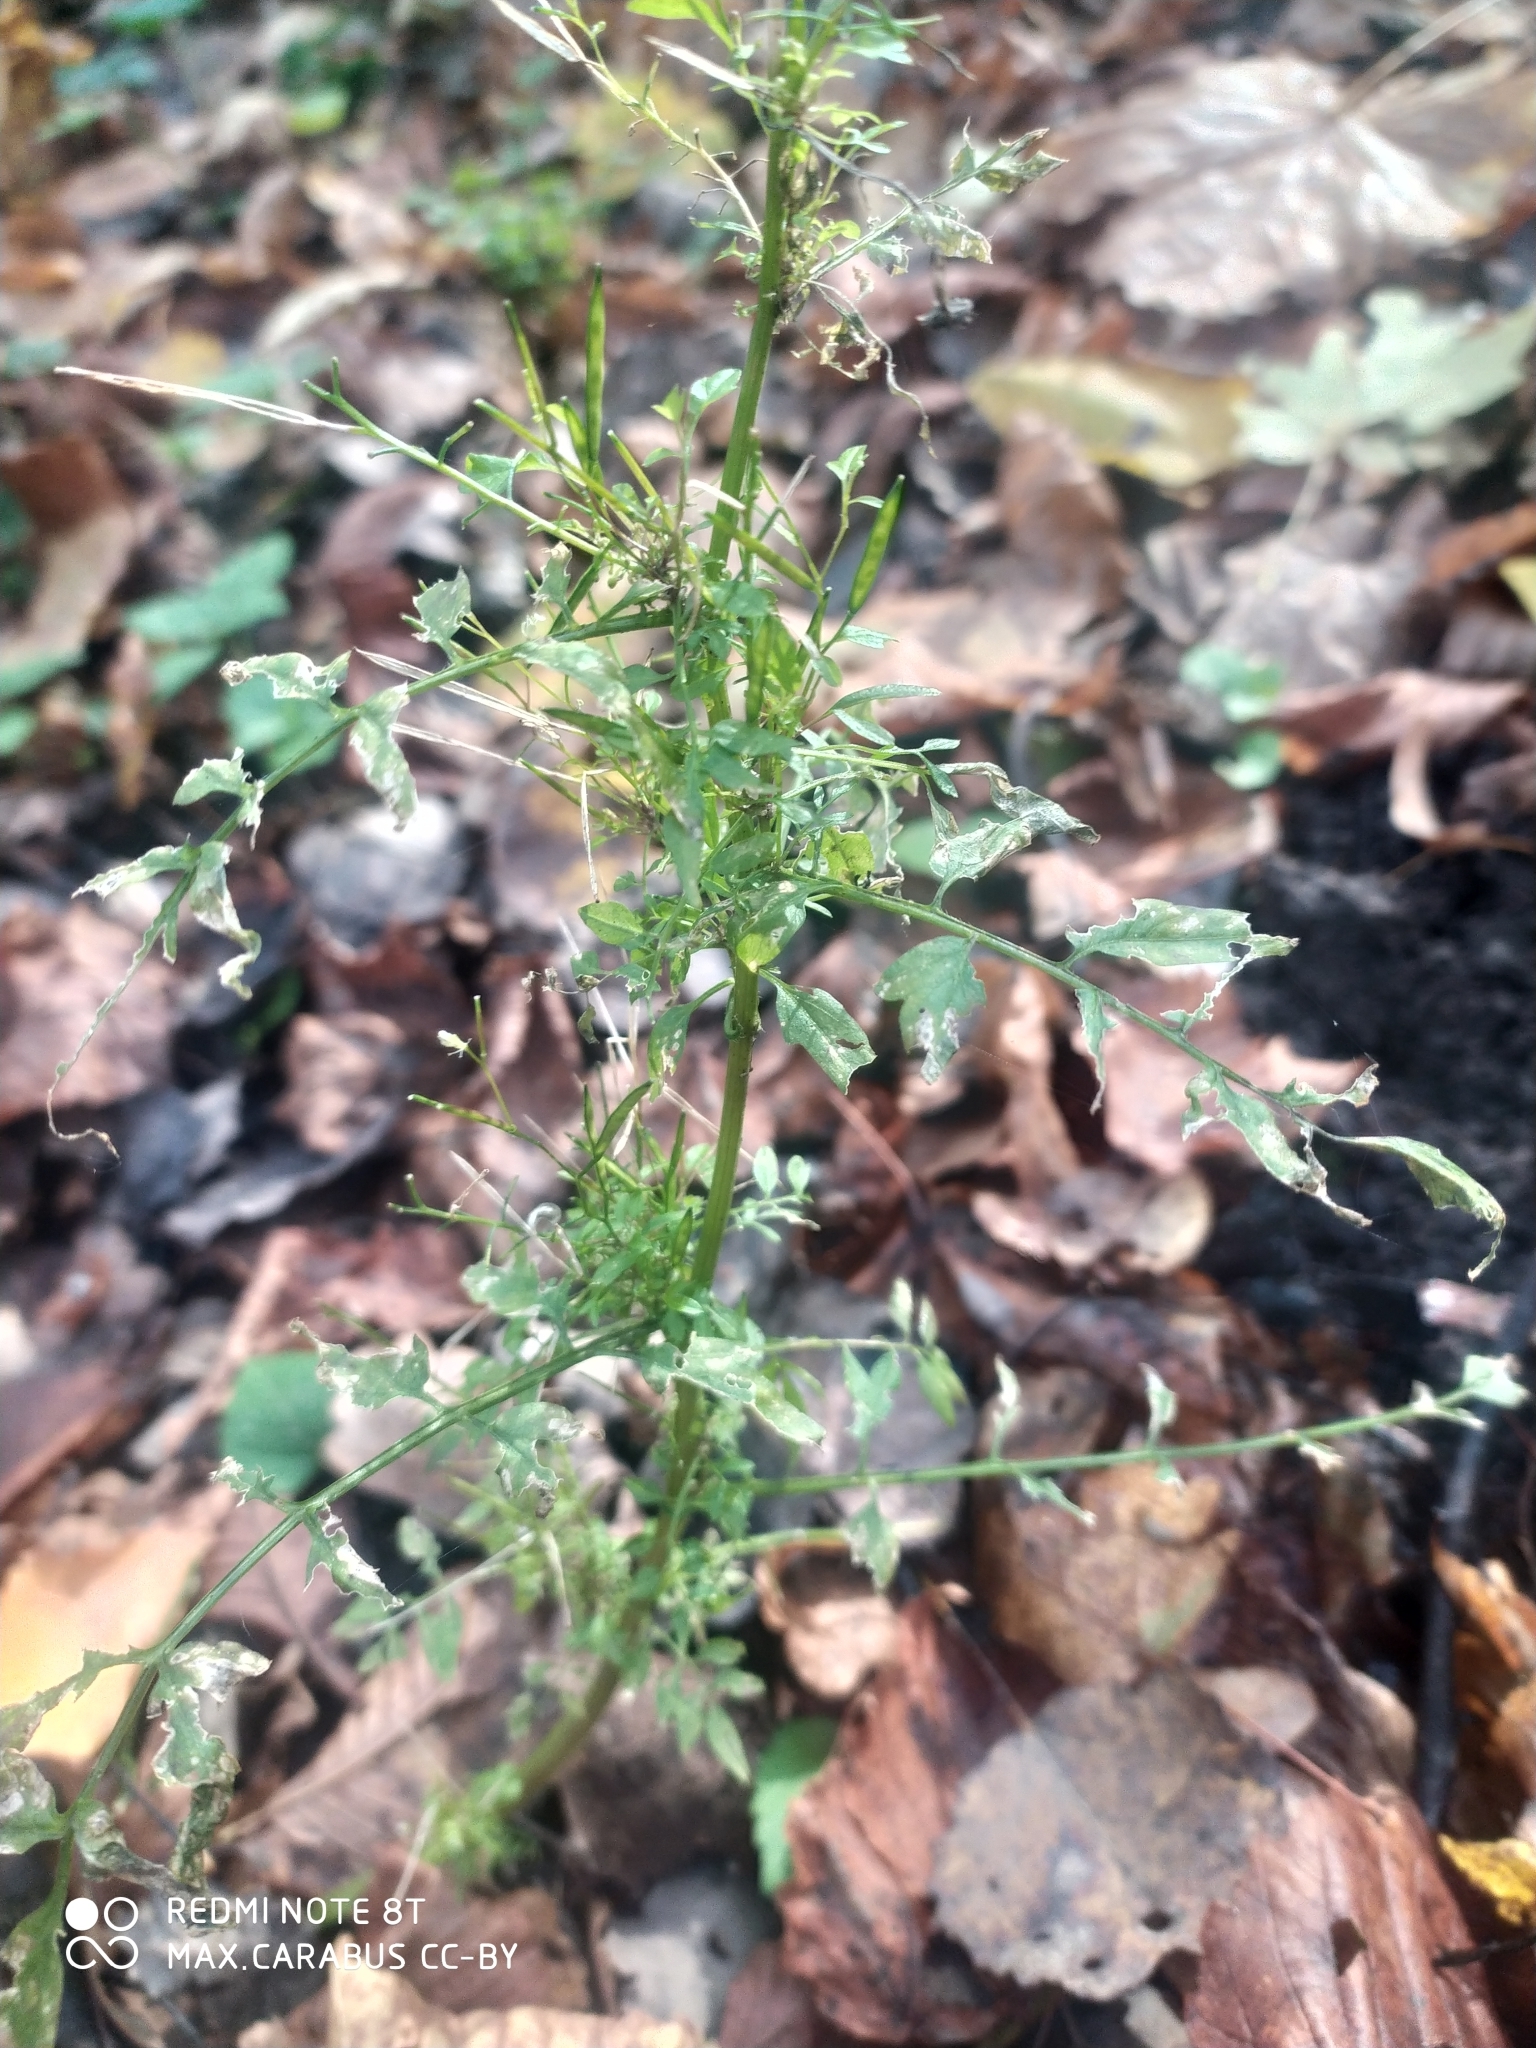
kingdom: Plantae
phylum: Tracheophyta
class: Magnoliopsida
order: Brassicales
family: Brassicaceae
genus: Cardamine
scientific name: Cardamine impatiens
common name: Narrow-leaved bitter-cress
